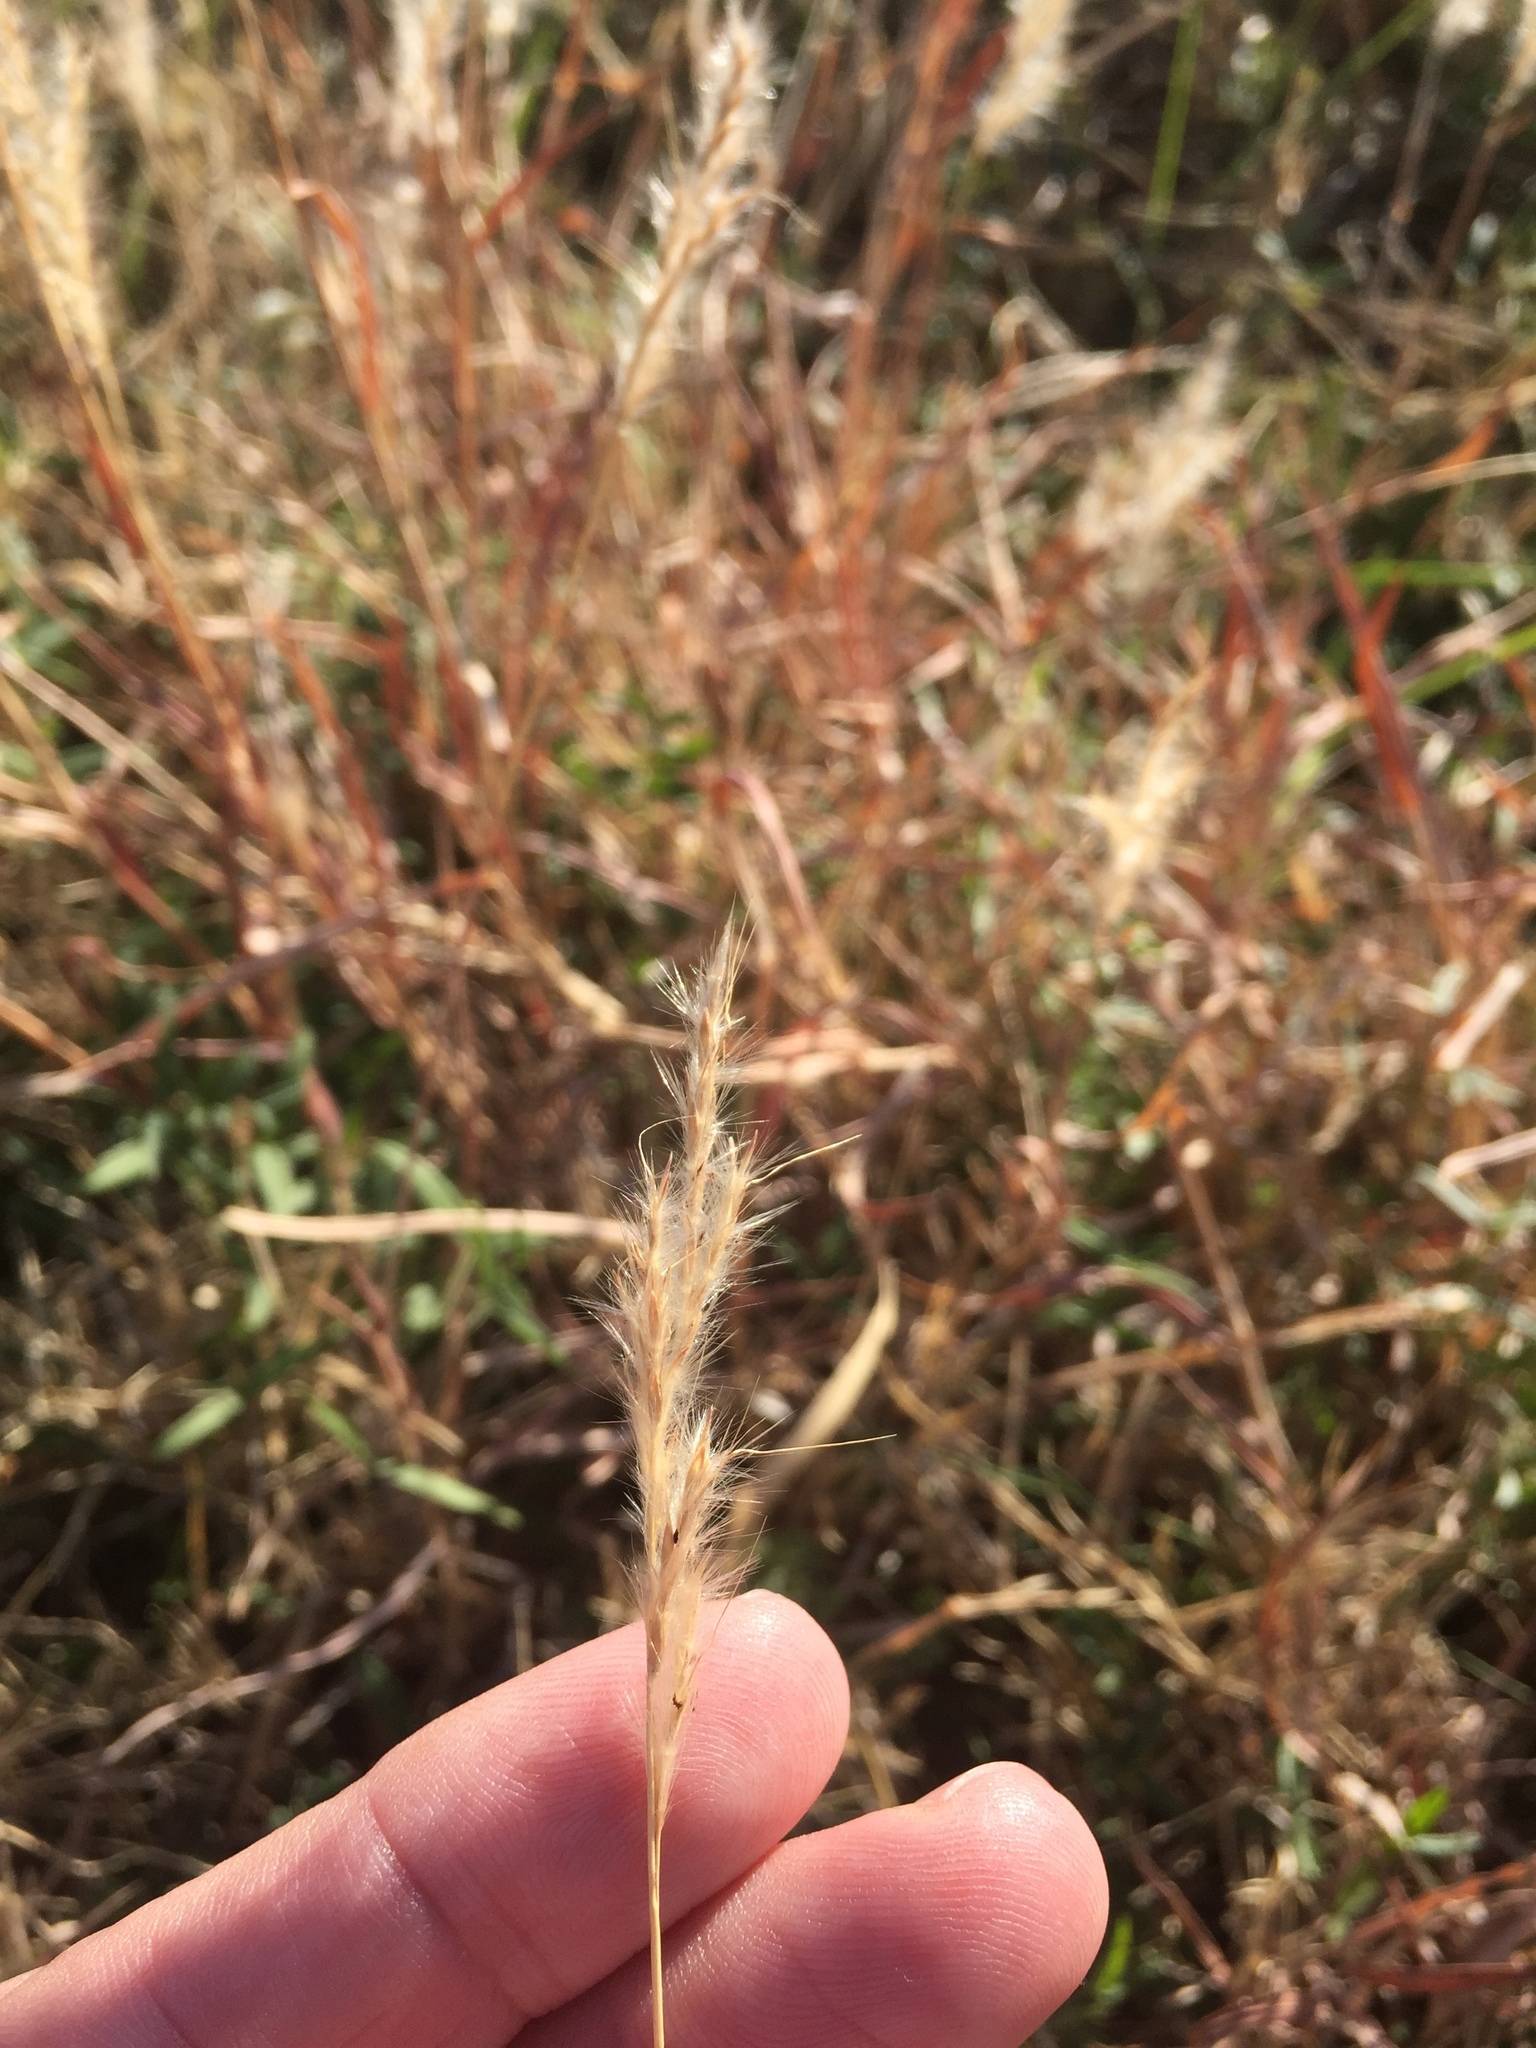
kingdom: Plantae
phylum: Tracheophyta
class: Liliopsida
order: Poales
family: Poaceae
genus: Bothriochloa
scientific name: Bothriochloa torreyana
